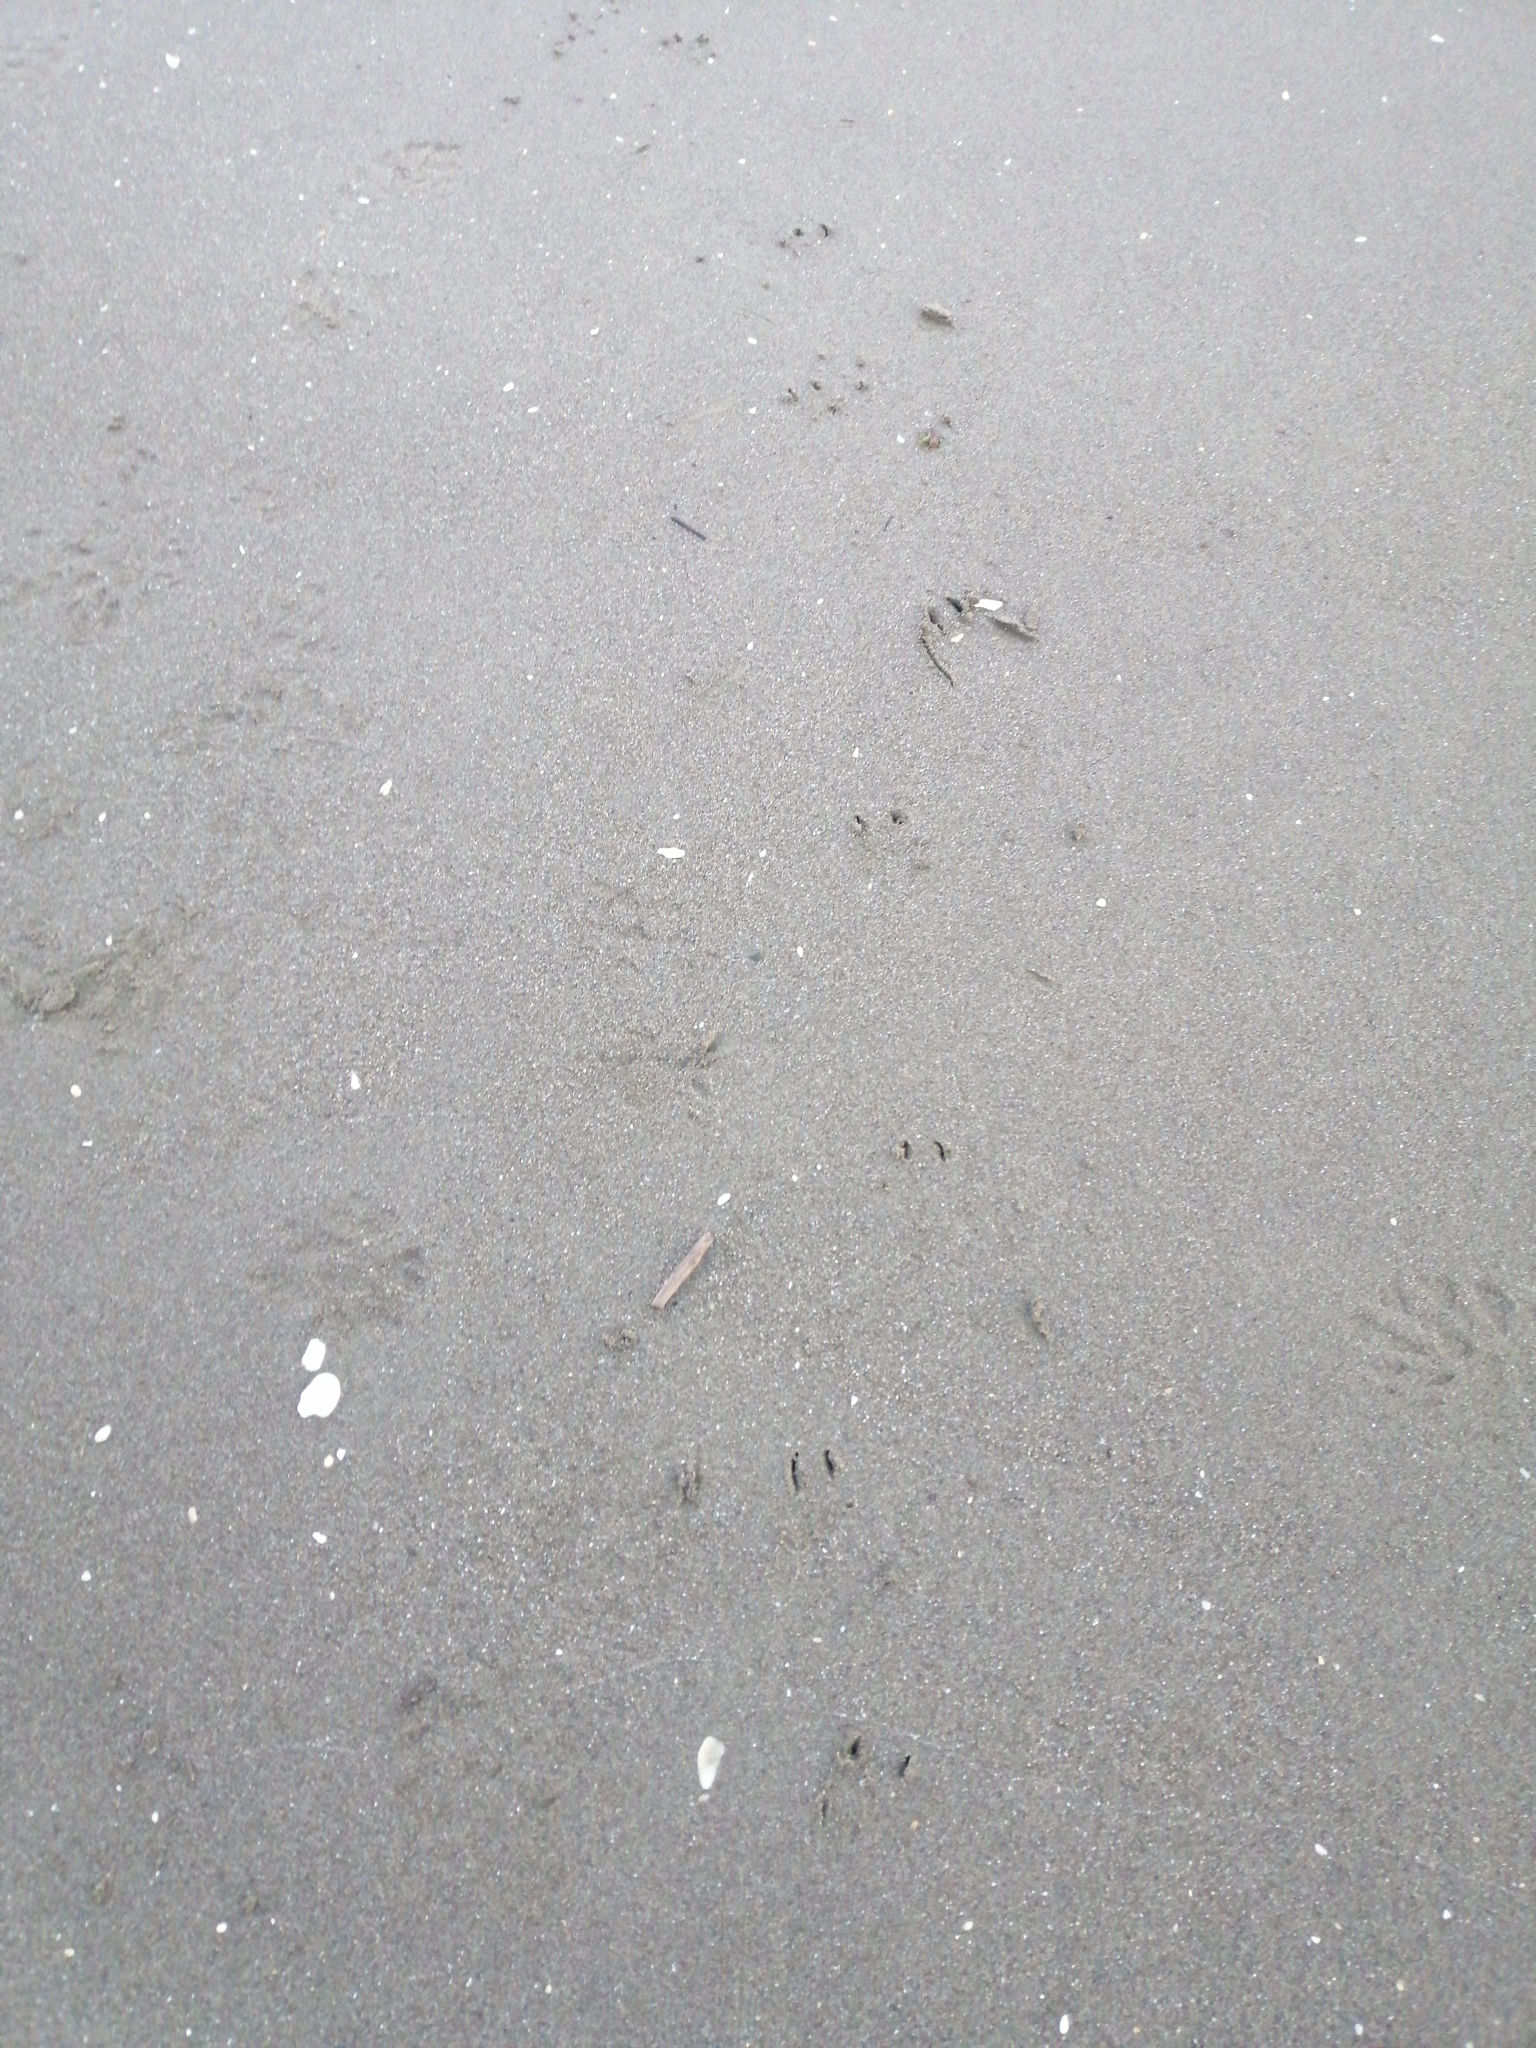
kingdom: Animalia
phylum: Chordata
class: Aves
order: Sphenisciformes
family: Spheniscidae
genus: Eudyptula
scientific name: Eudyptula minor
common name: Little penguin
